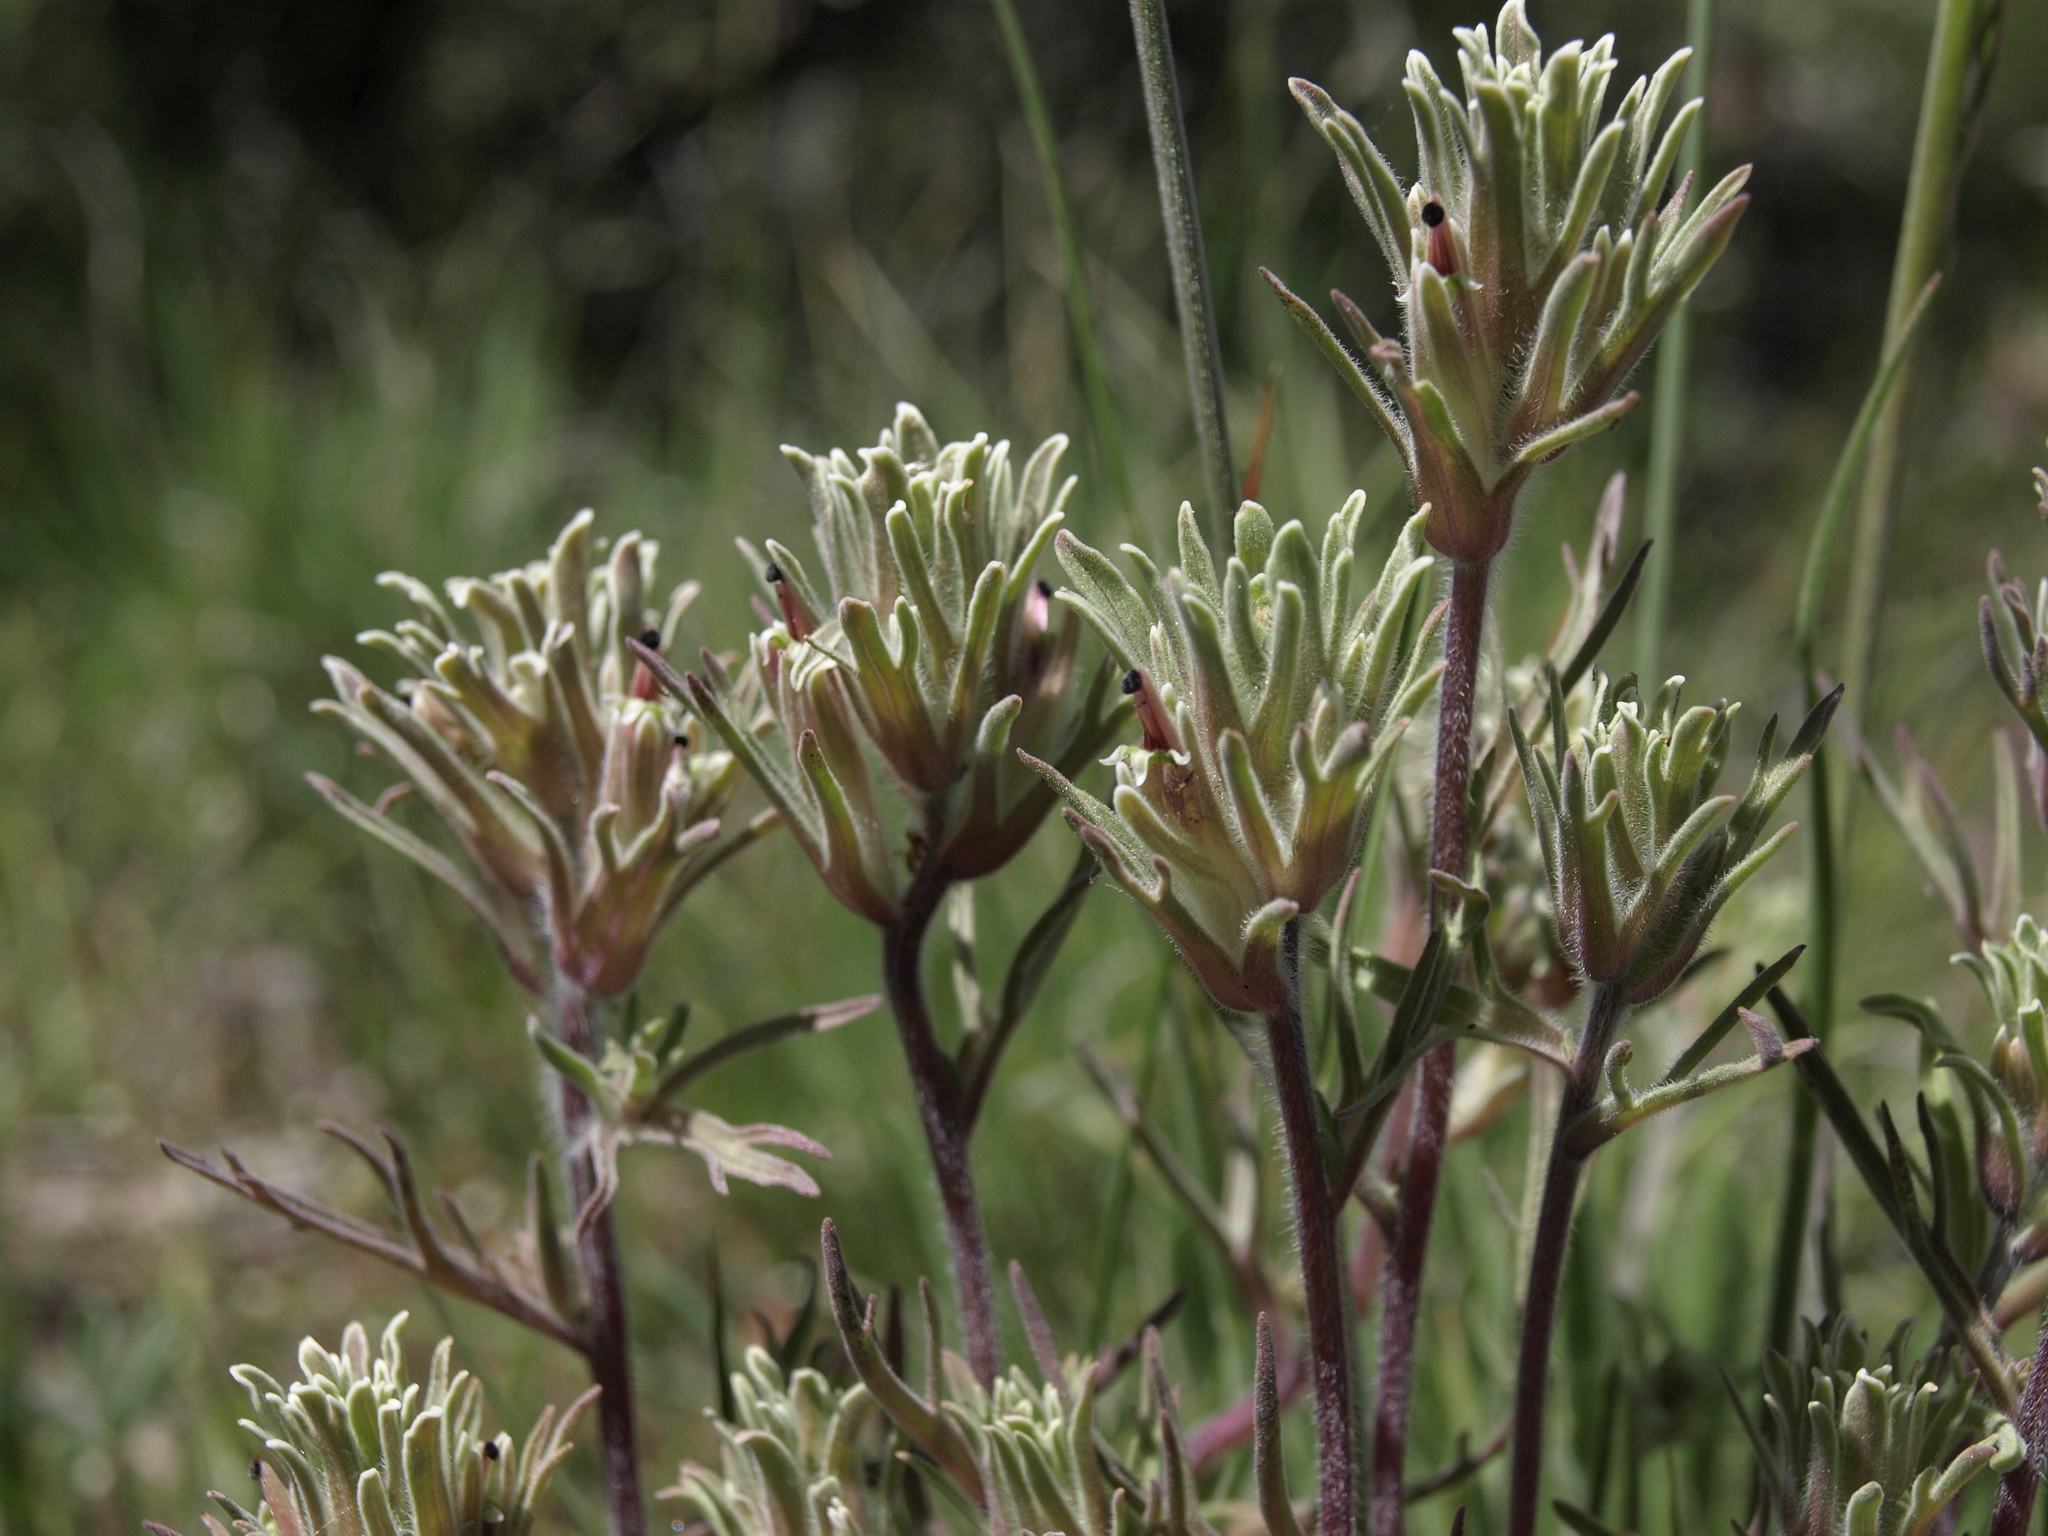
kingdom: Plantae
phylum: Tracheophyta
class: Magnoliopsida
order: Lamiales
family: Orobanchaceae
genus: Castilleja
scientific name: Castilleja nana
